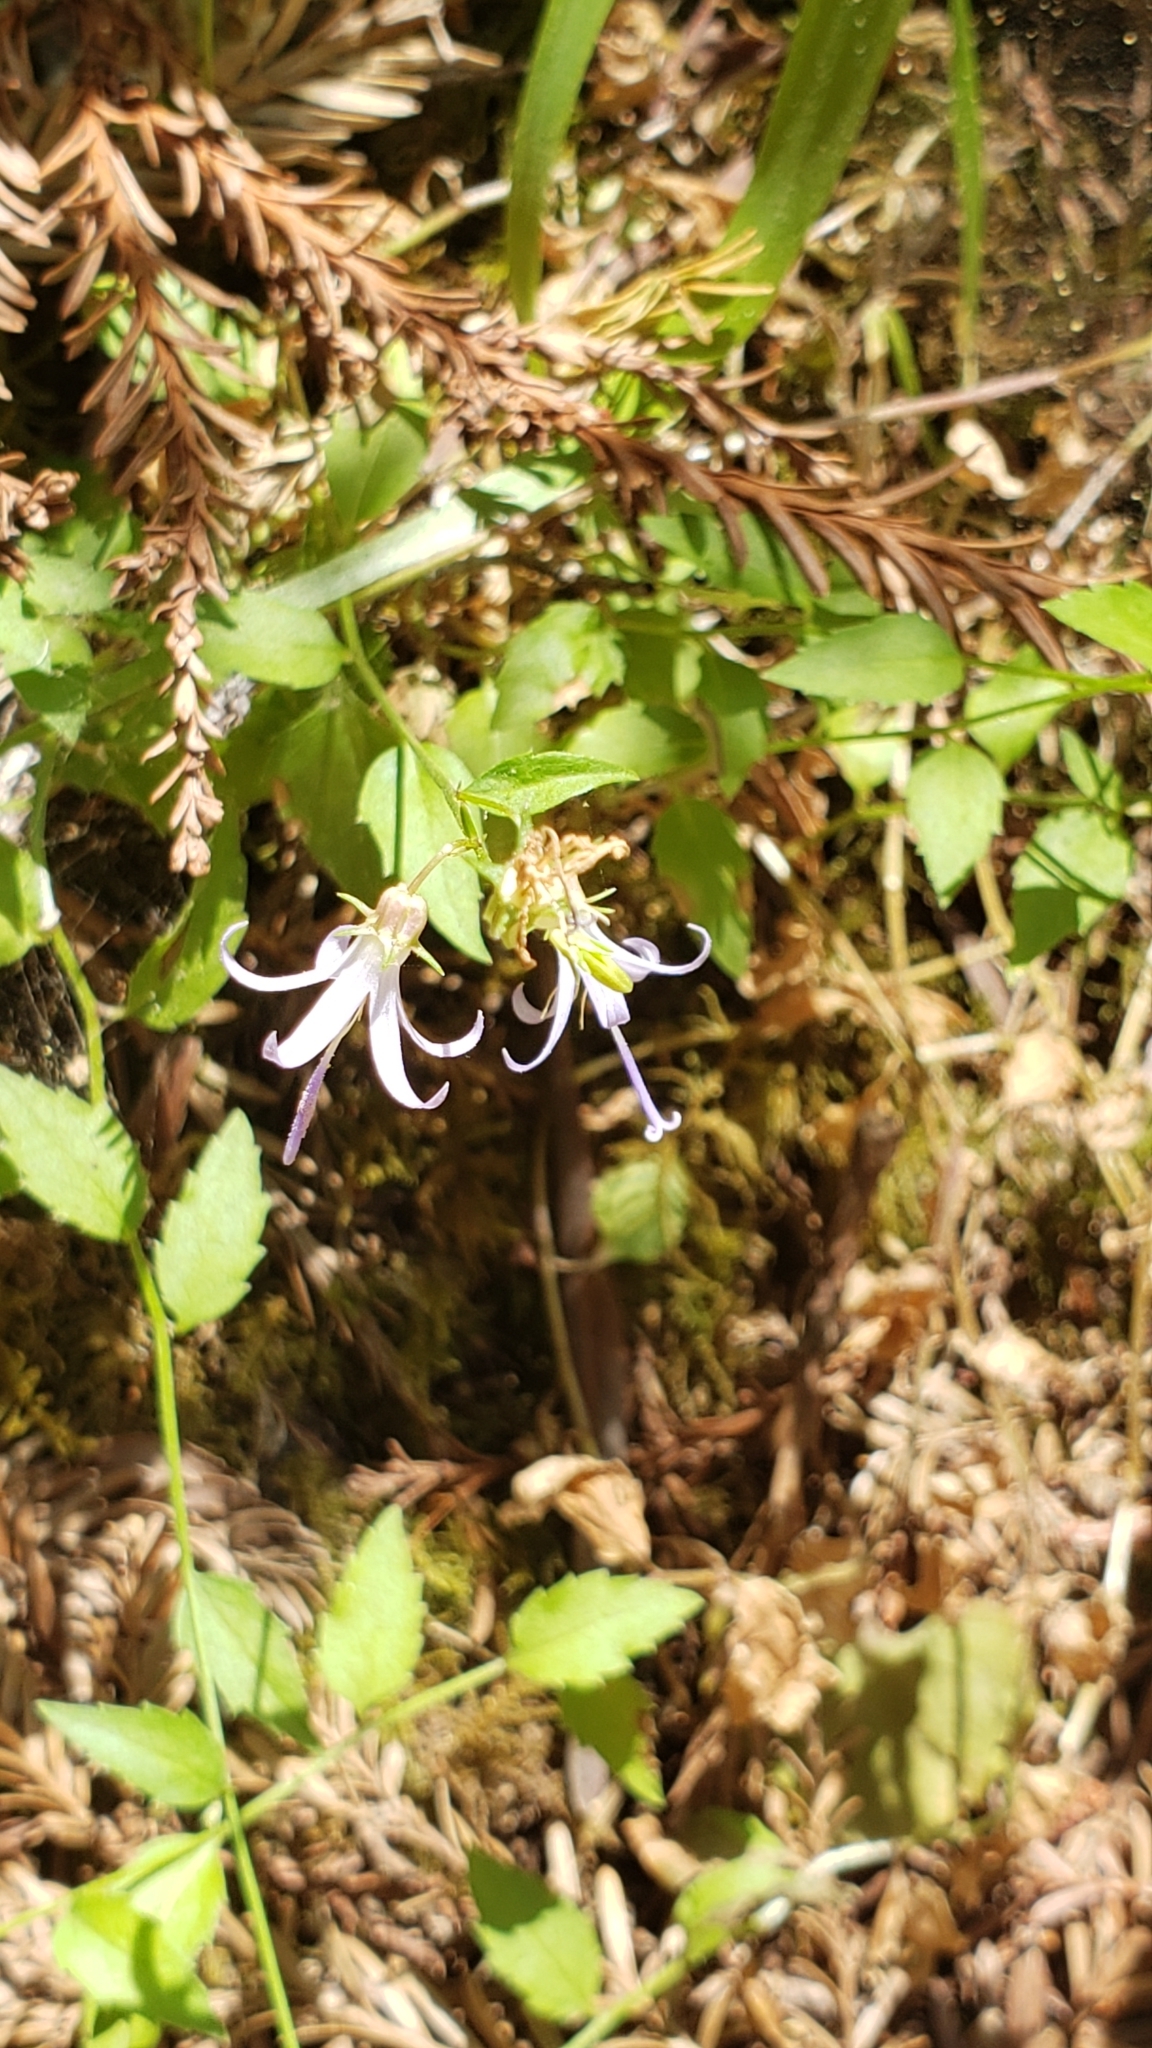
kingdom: Plantae
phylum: Tracheophyta
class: Magnoliopsida
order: Asterales
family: Campanulaceae
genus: Smithiastrum
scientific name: Smithiastrum prenanthoides
